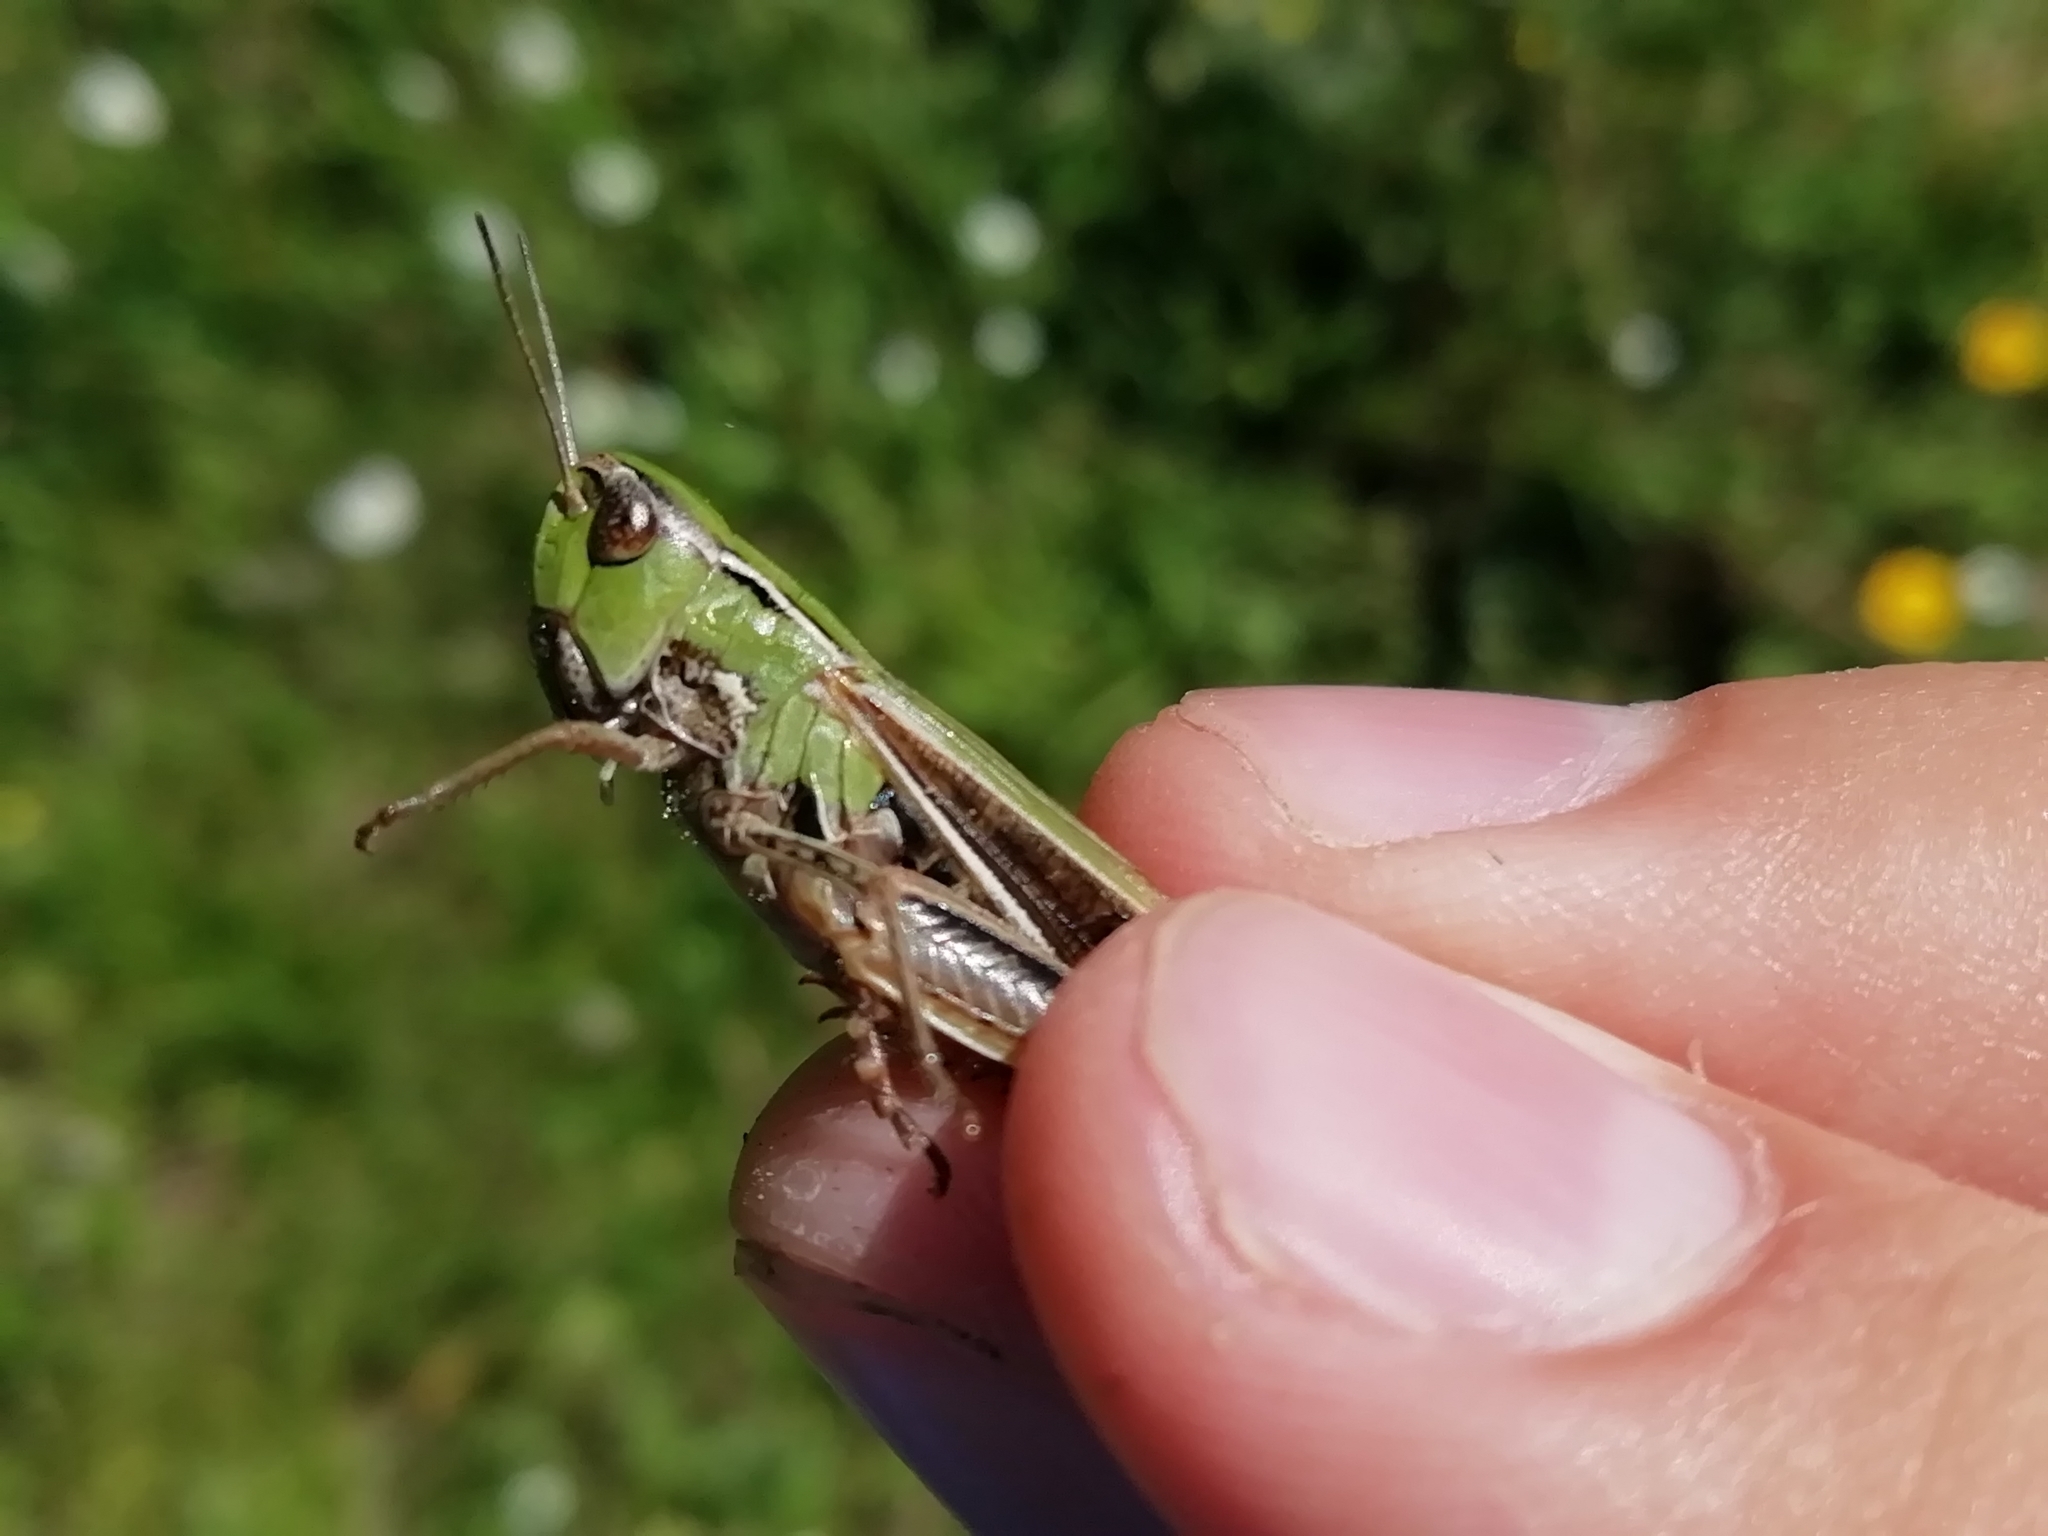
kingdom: Animalia
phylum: Arthropoda
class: Insecta
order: Orthoptera
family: Acrididae
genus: Stenobothrus
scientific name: Stenobothrus lineatus
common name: Stripe-winged grasshopper
